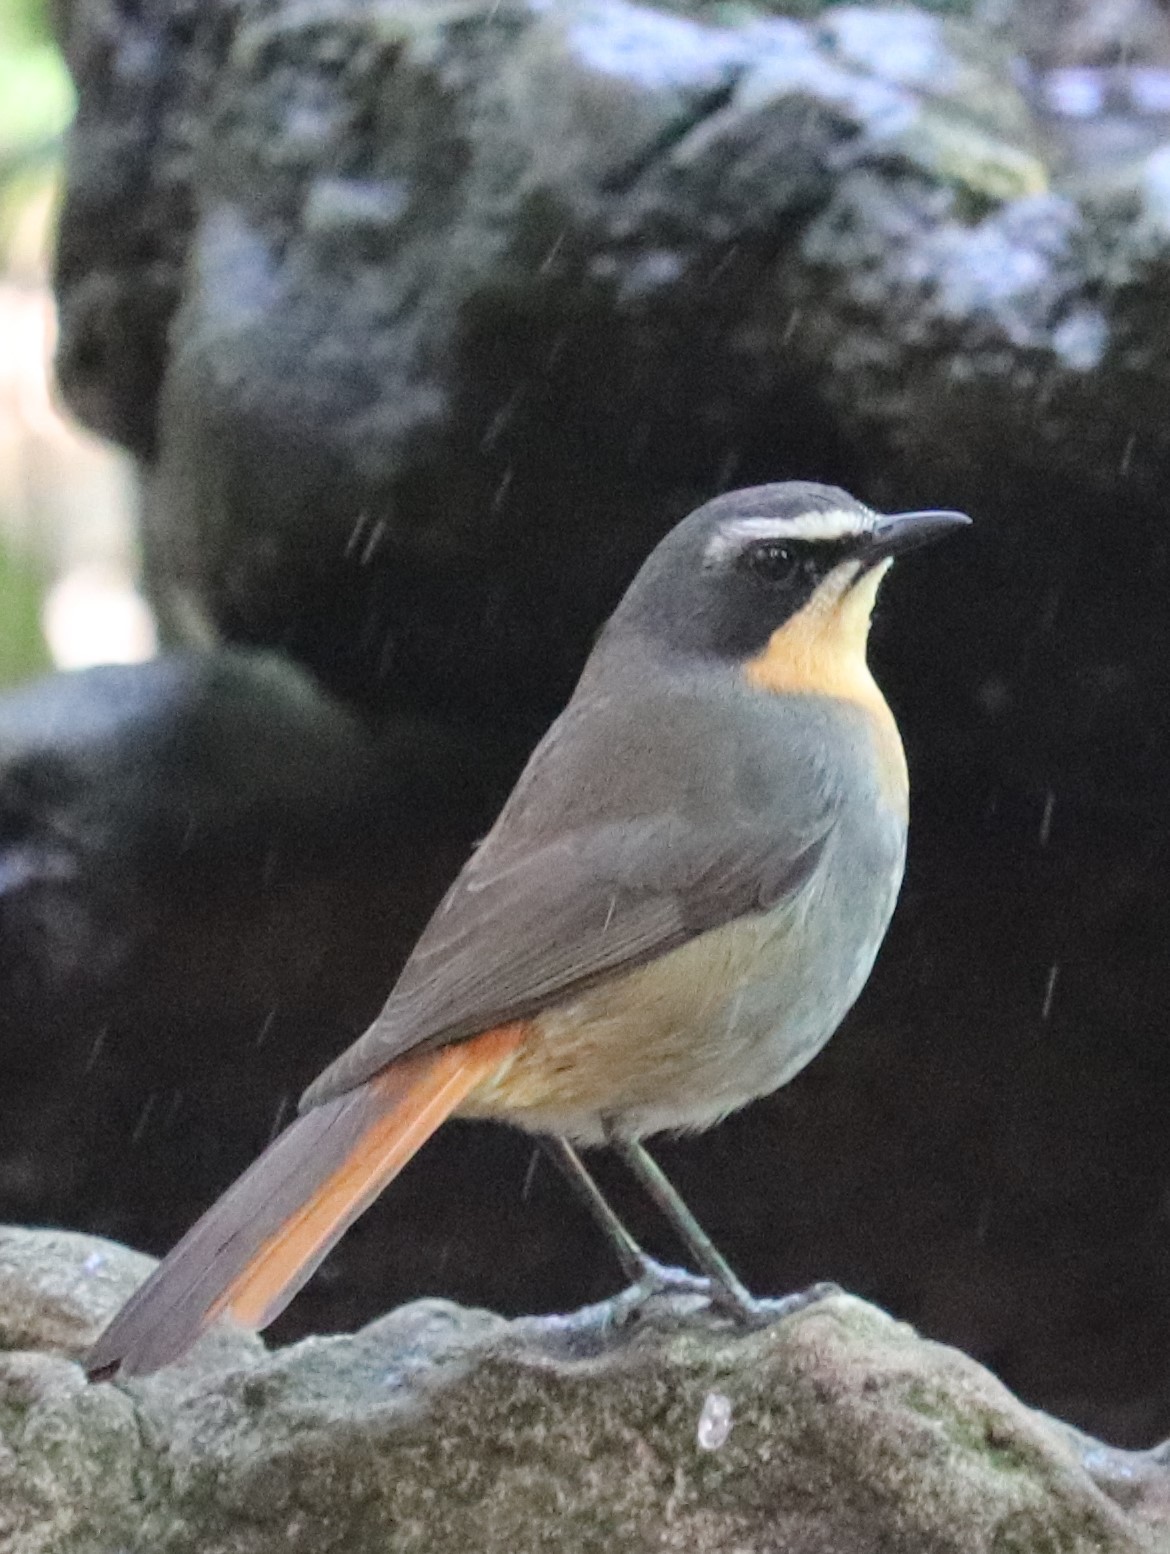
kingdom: Animalia
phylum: Chordata
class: Aves
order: Passeriformes
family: Muscicapidae
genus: Cossypha
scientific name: Cossypha caffra
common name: Cape robin-chat
